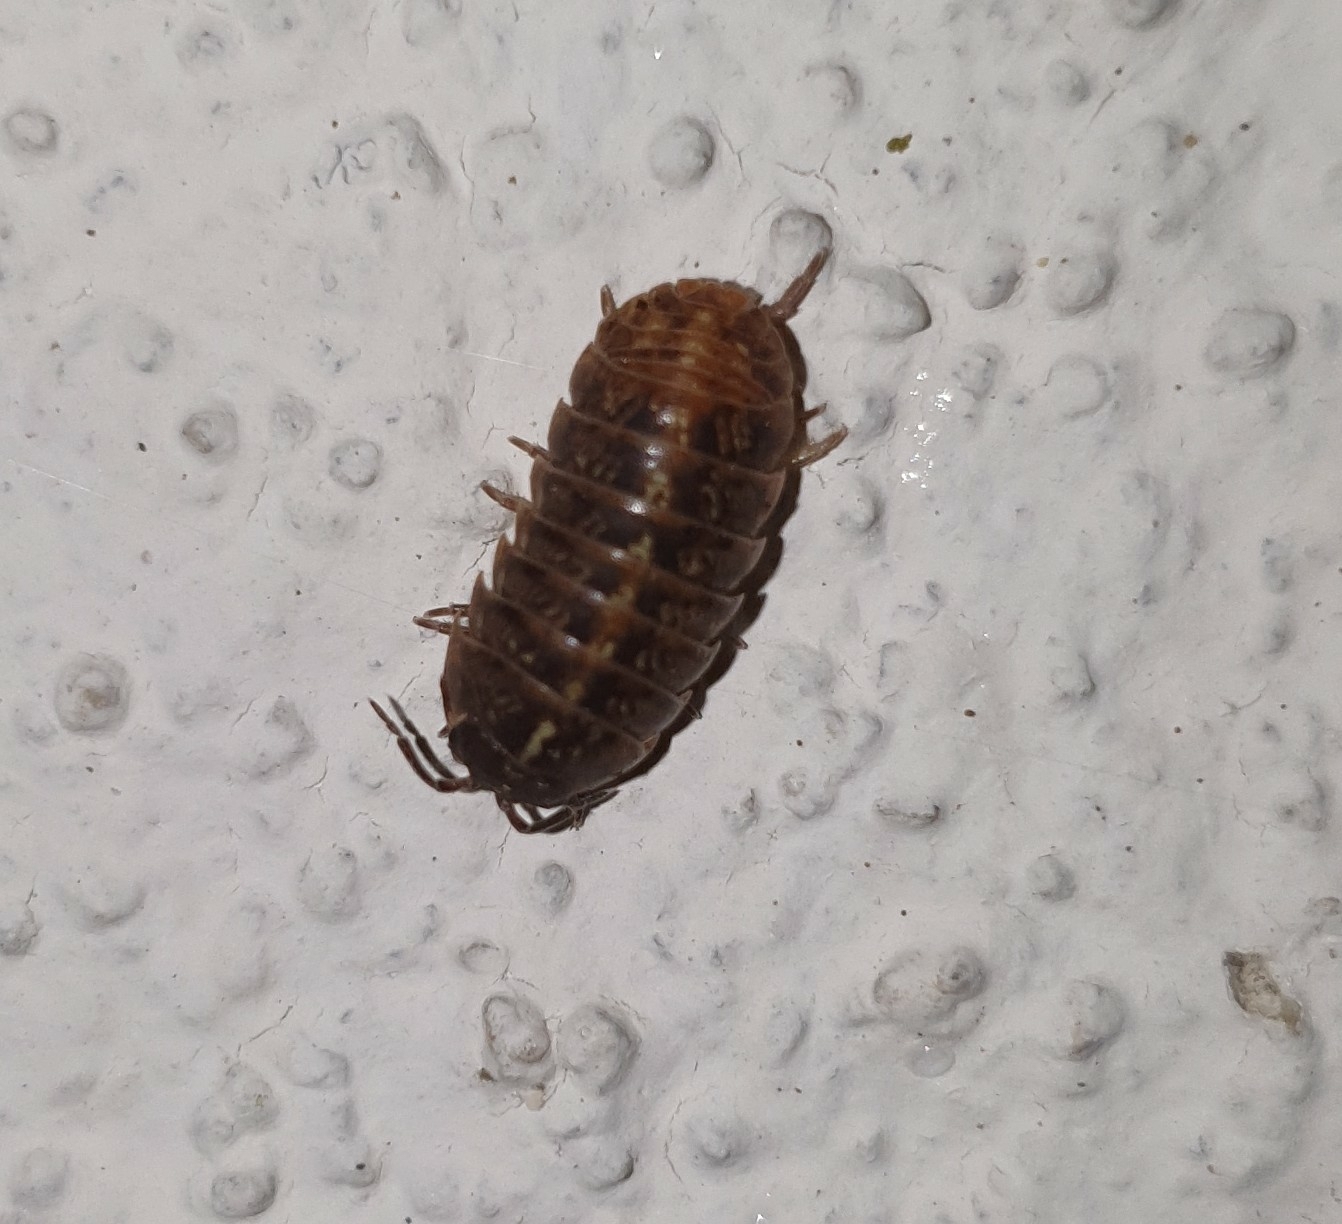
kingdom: Animalia
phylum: Arthropoda
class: Malacostraca
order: Isopoda
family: Armadillidiidae
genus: Armadillidium
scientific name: Armadillidium vulgare
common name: Common pill woodlouse
